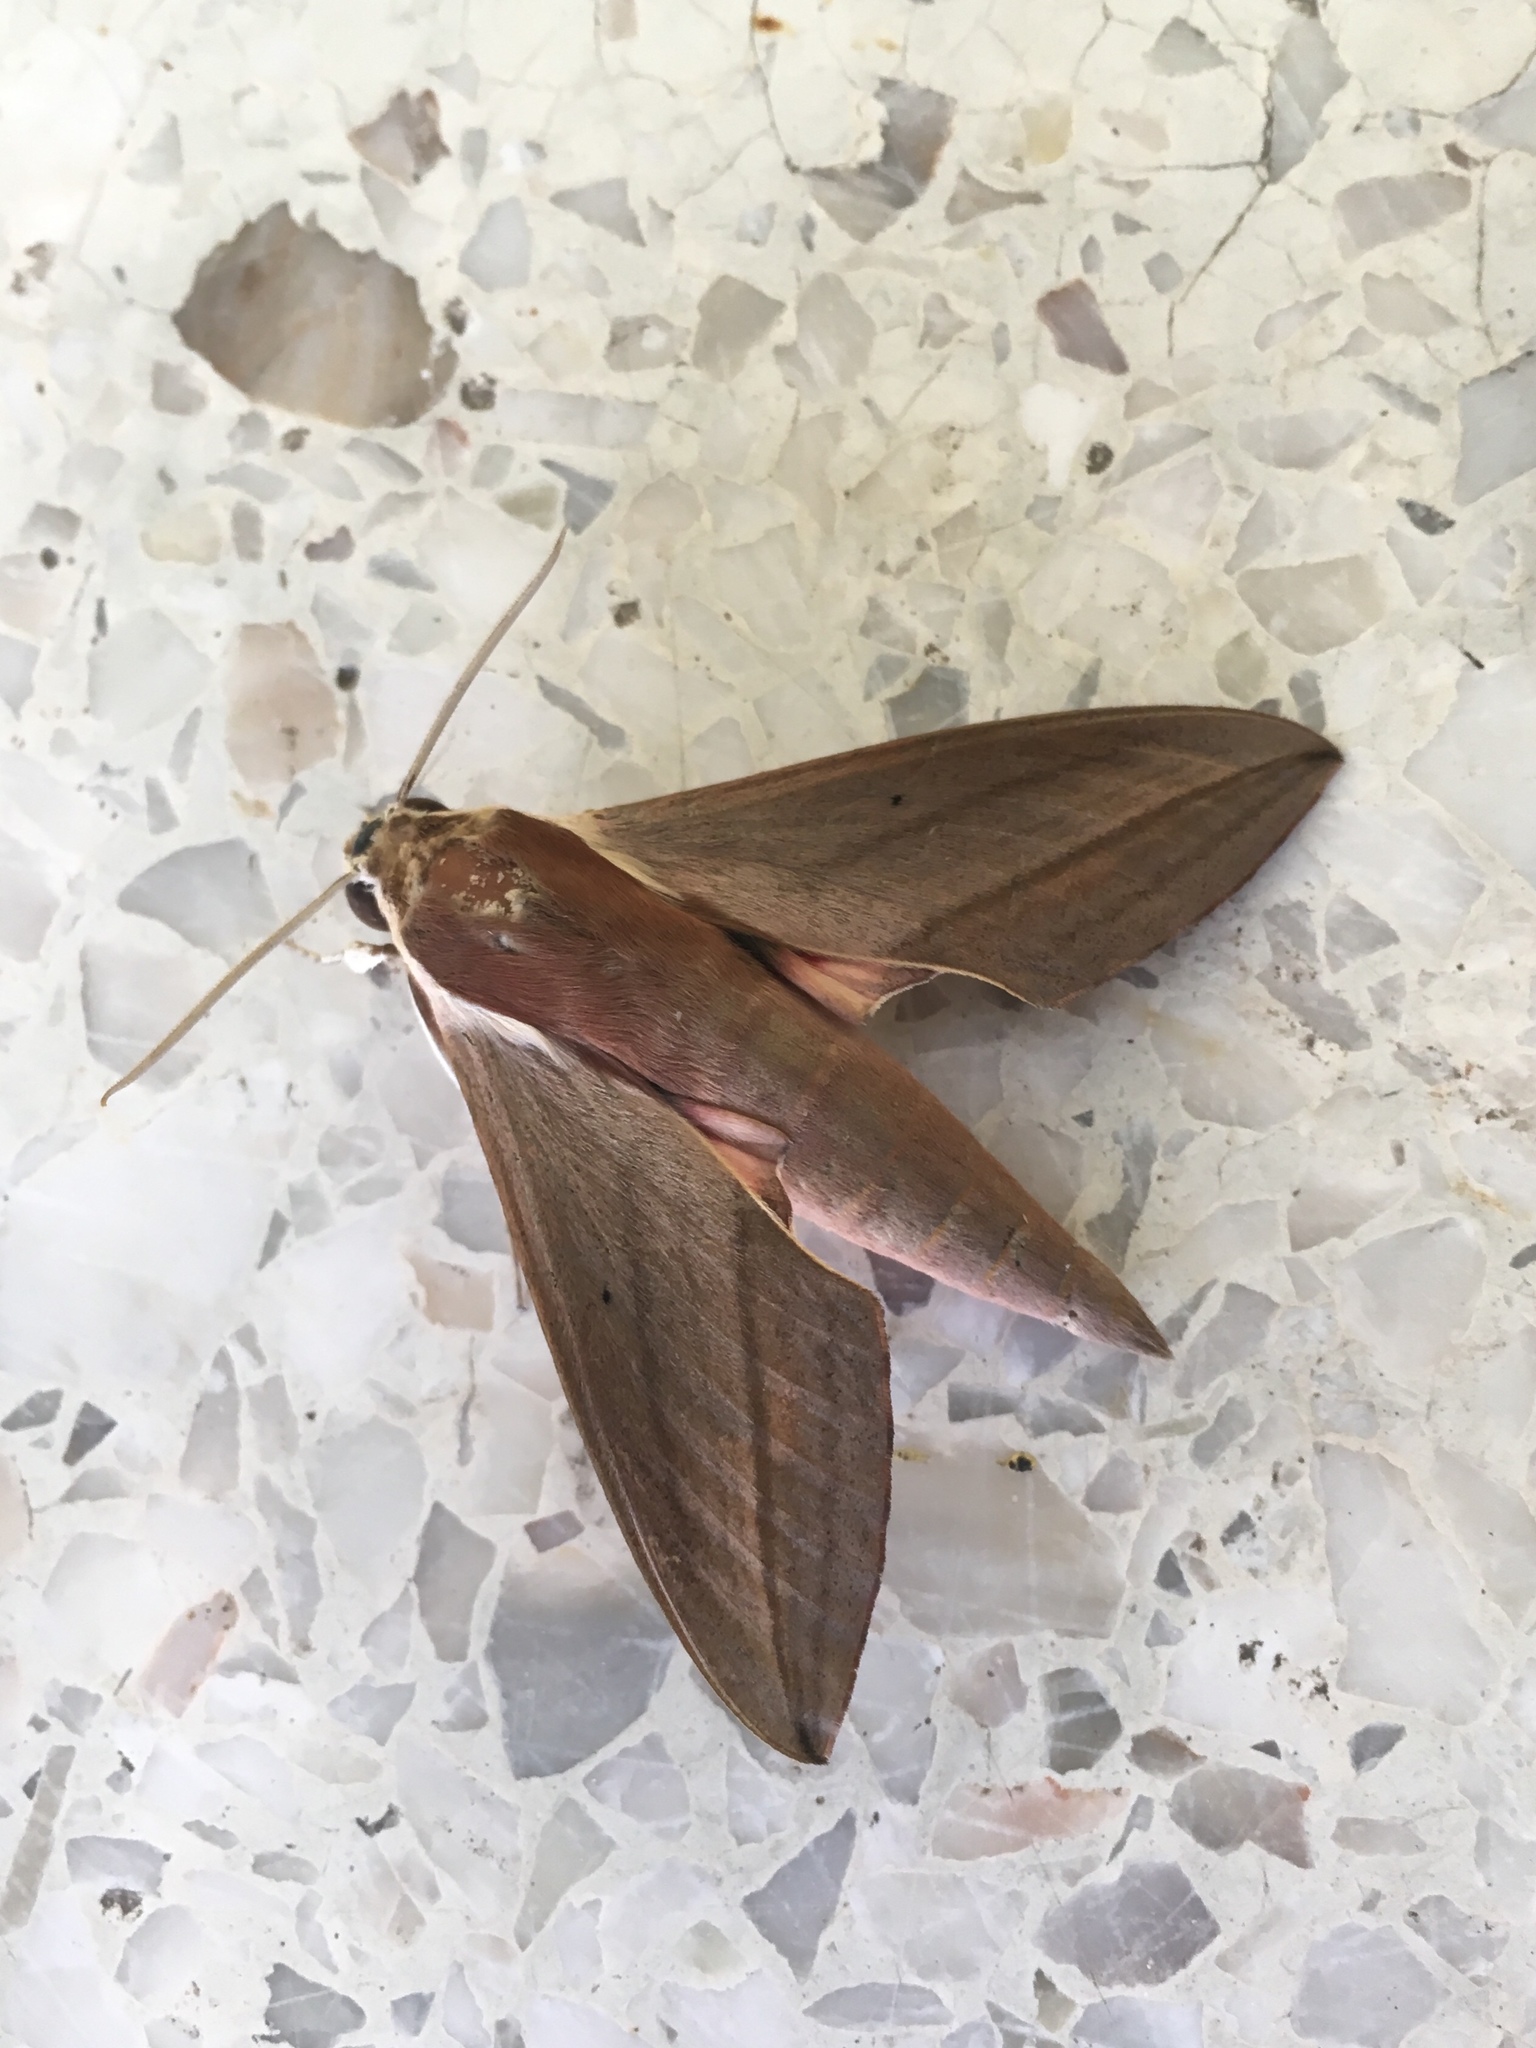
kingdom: Animalia
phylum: Arthropoda
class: Insecta
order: Lepidoptera
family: Sphingidae
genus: Theretra
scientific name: Theretra alecto
